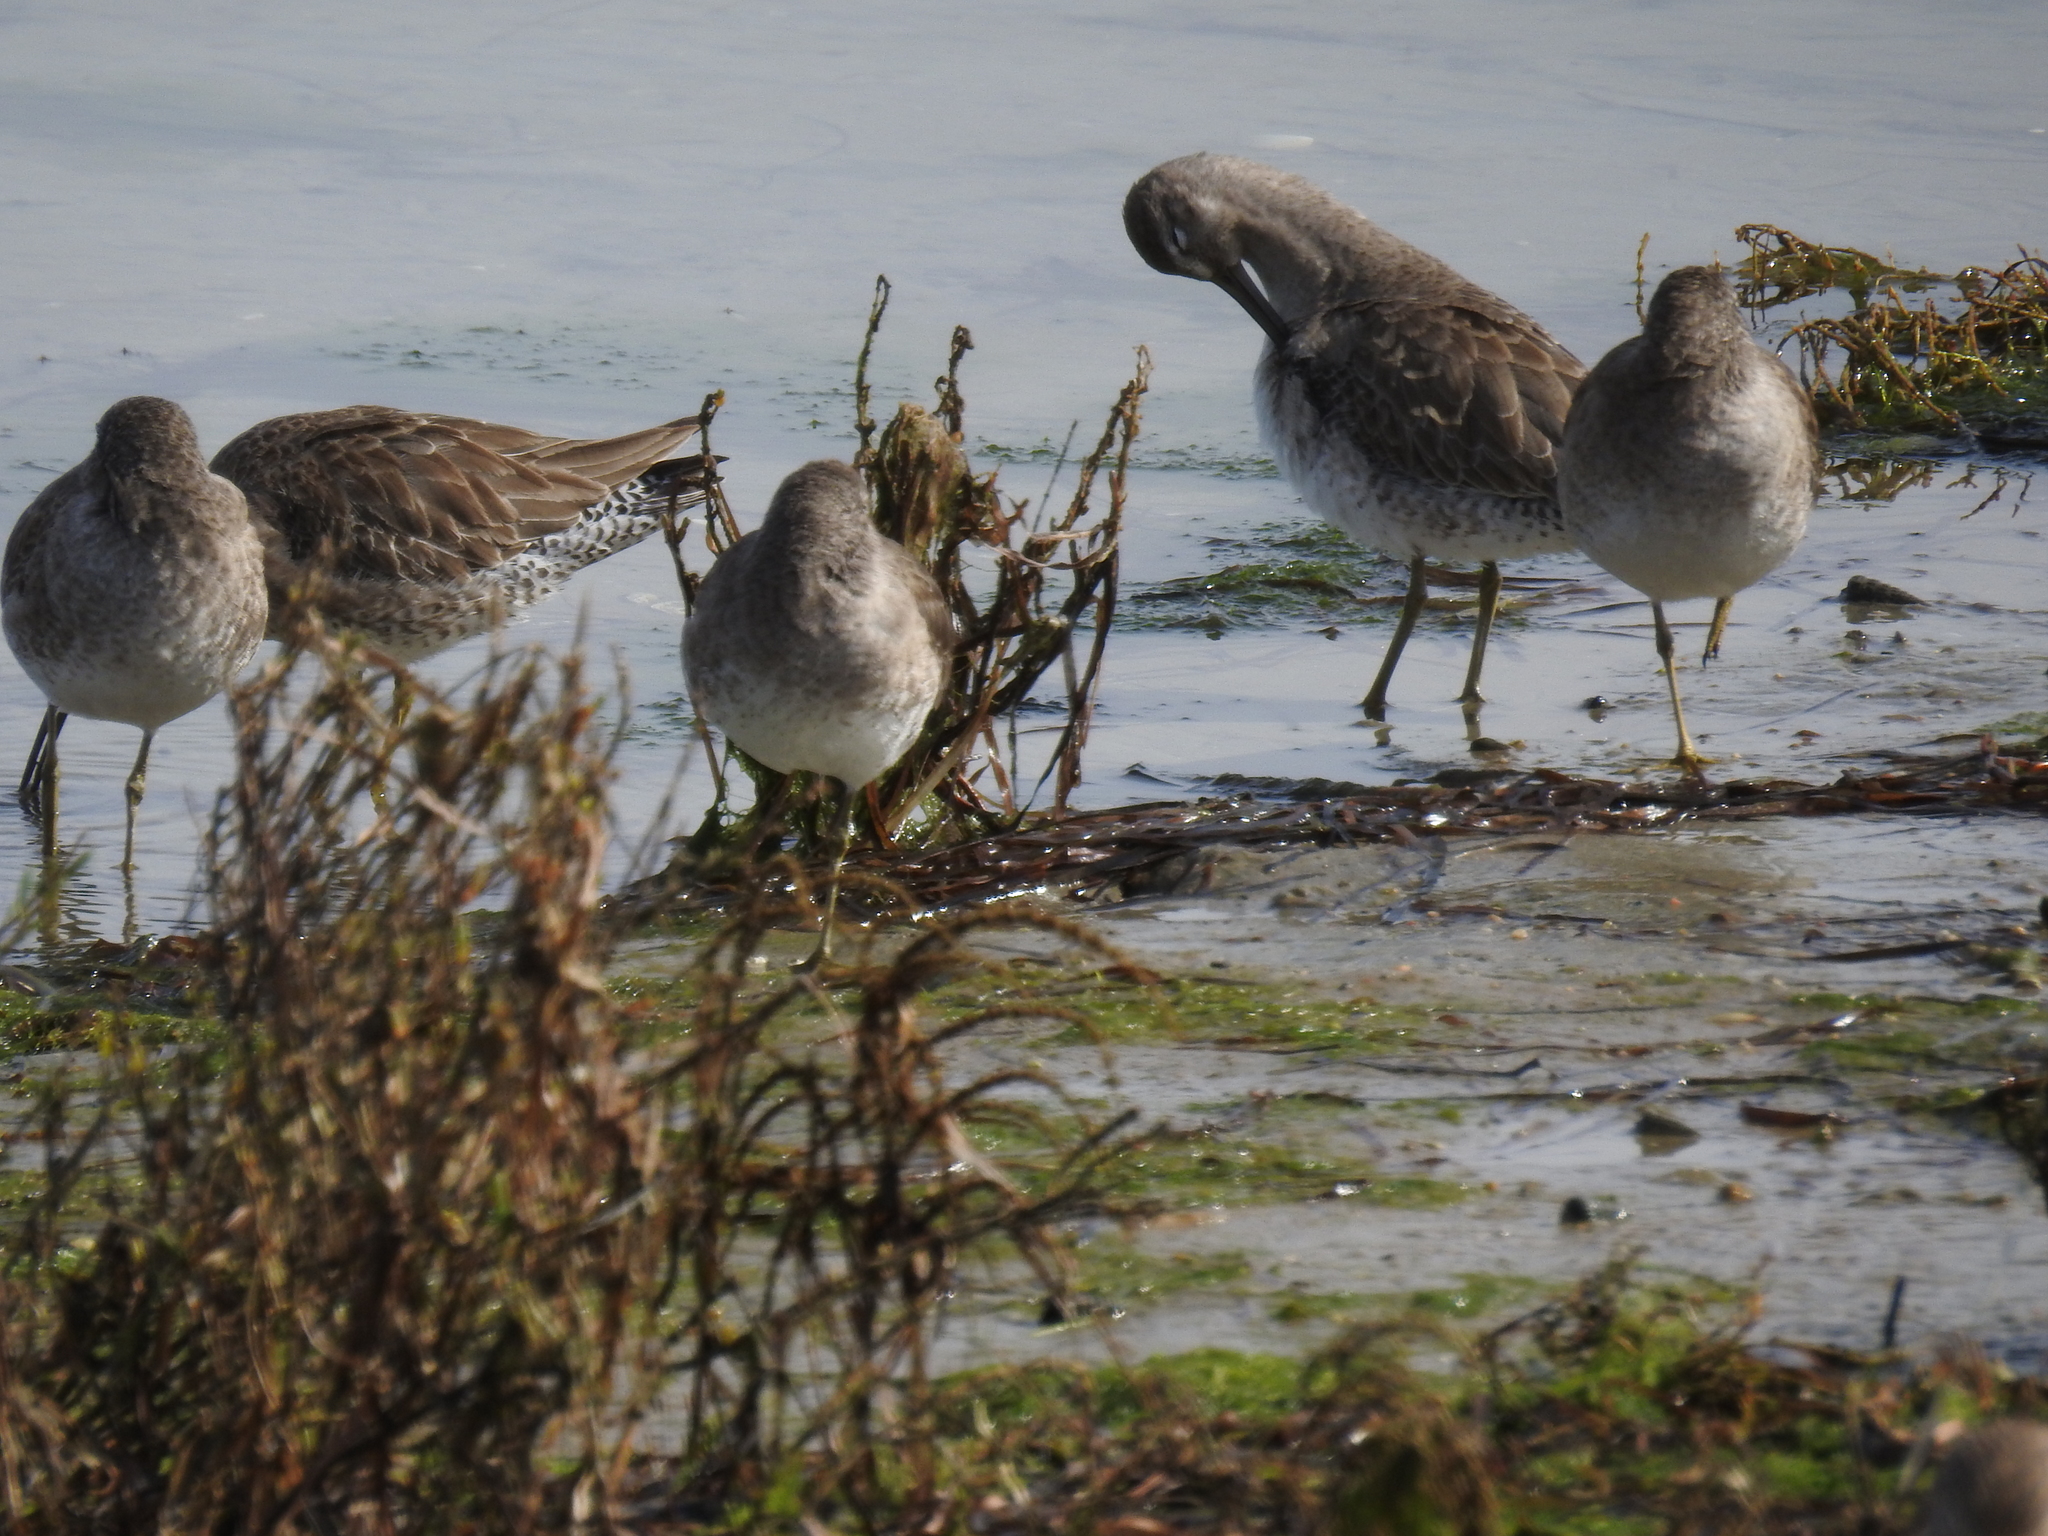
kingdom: Animalia
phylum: Chordata
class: Aves
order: Charadriiformes
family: Scolopacidae
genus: Limnodromus
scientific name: Limnodromus
